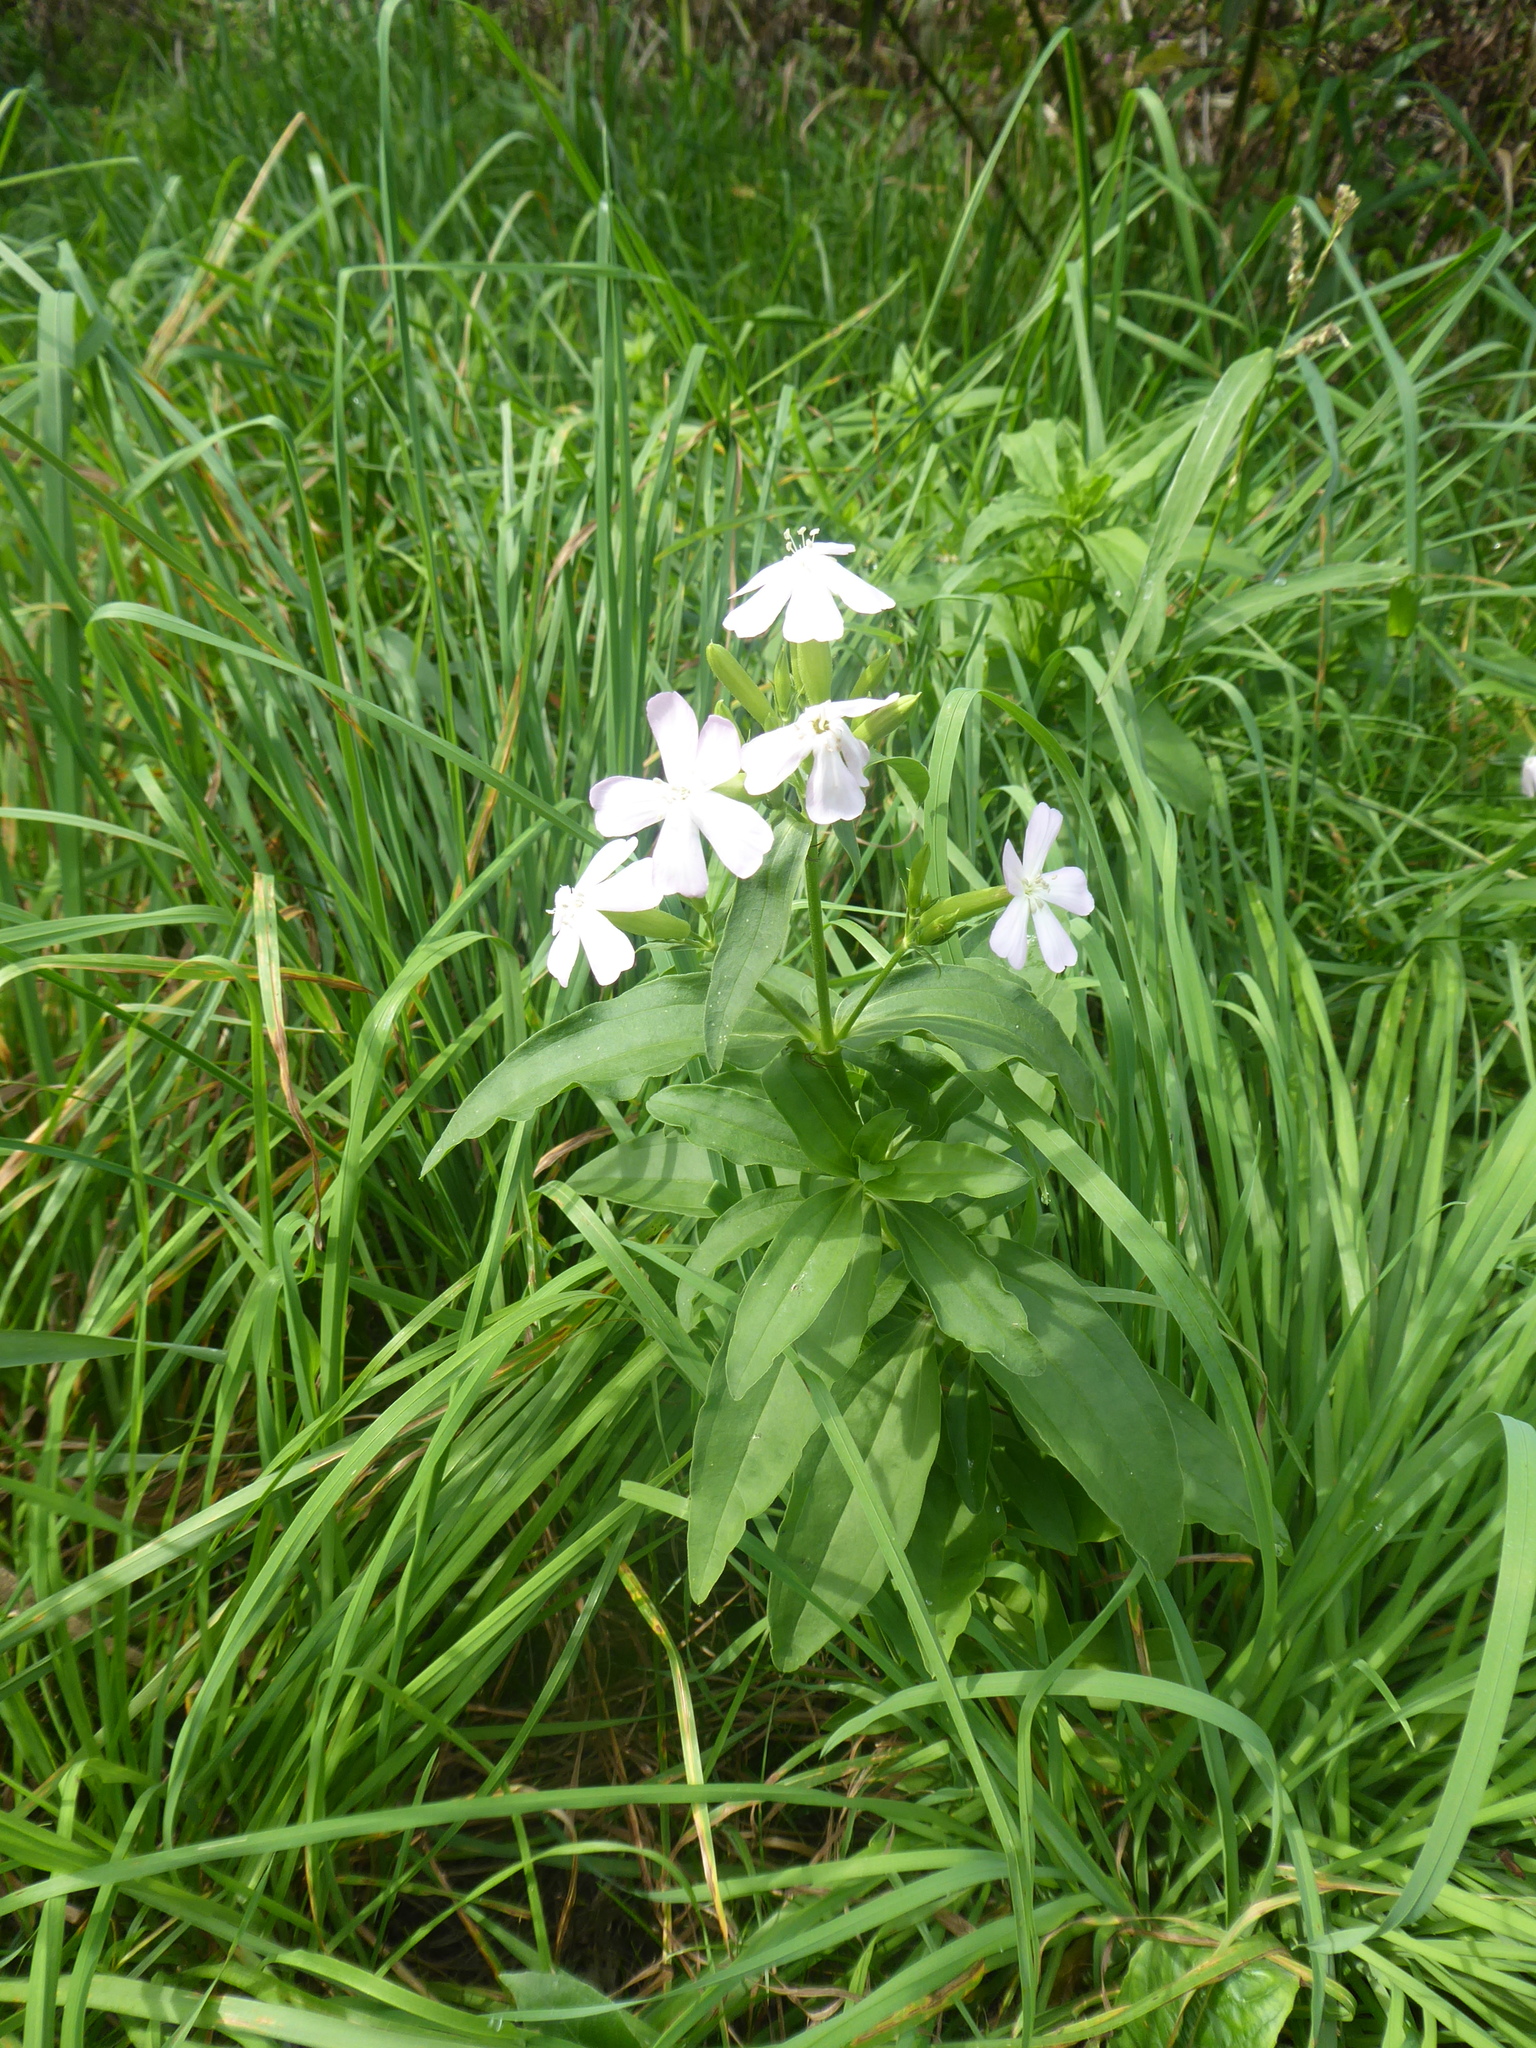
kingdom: Plantae
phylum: Tracheophyta
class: Magnoliopsida
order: Caryophyllales
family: Caryophyllaceae
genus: Saponaria
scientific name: Saponaria officinalis
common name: Soapwort
